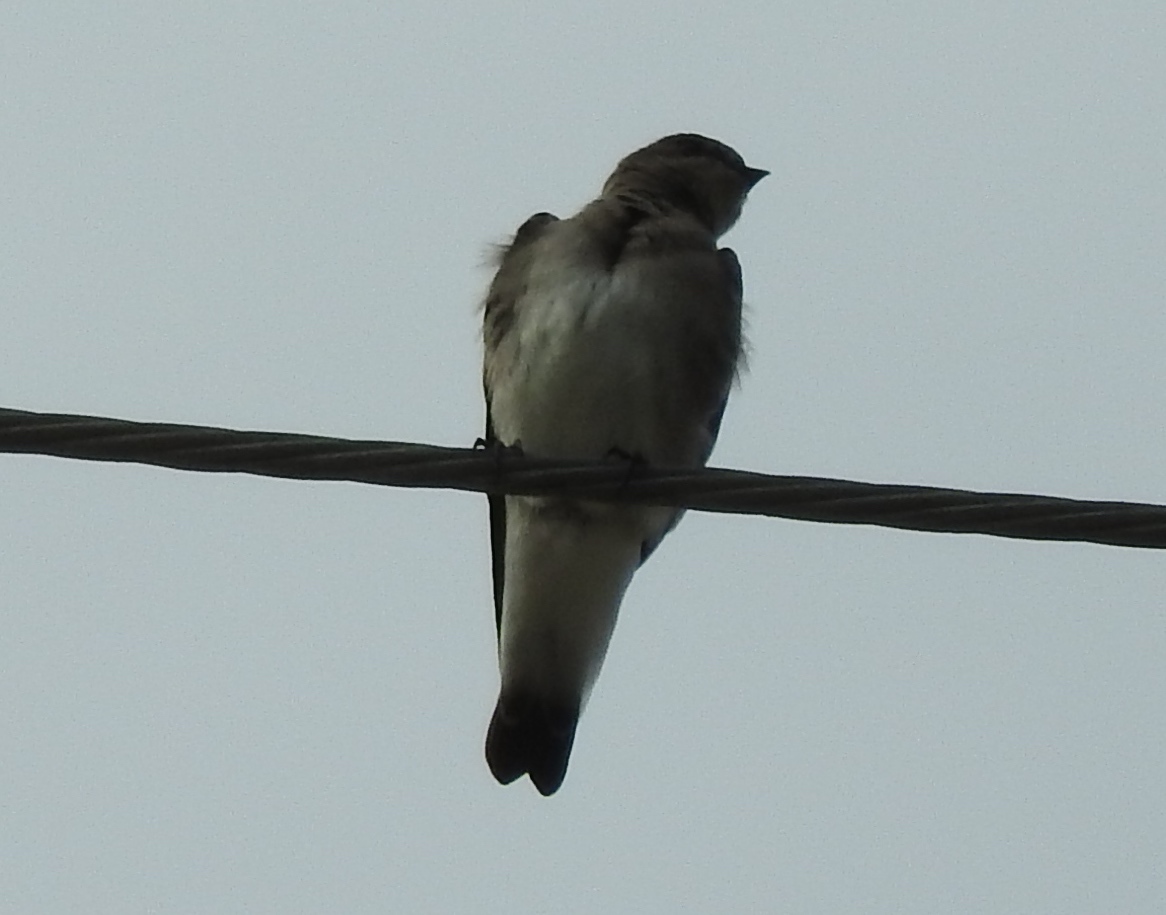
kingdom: Animalia
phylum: Chordata
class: Aves
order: Passeriformes
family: Hirundinidae
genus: Stelgidopteryx
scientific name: Stelgidopteryx serripennis
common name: Northern rough-winged swallow
